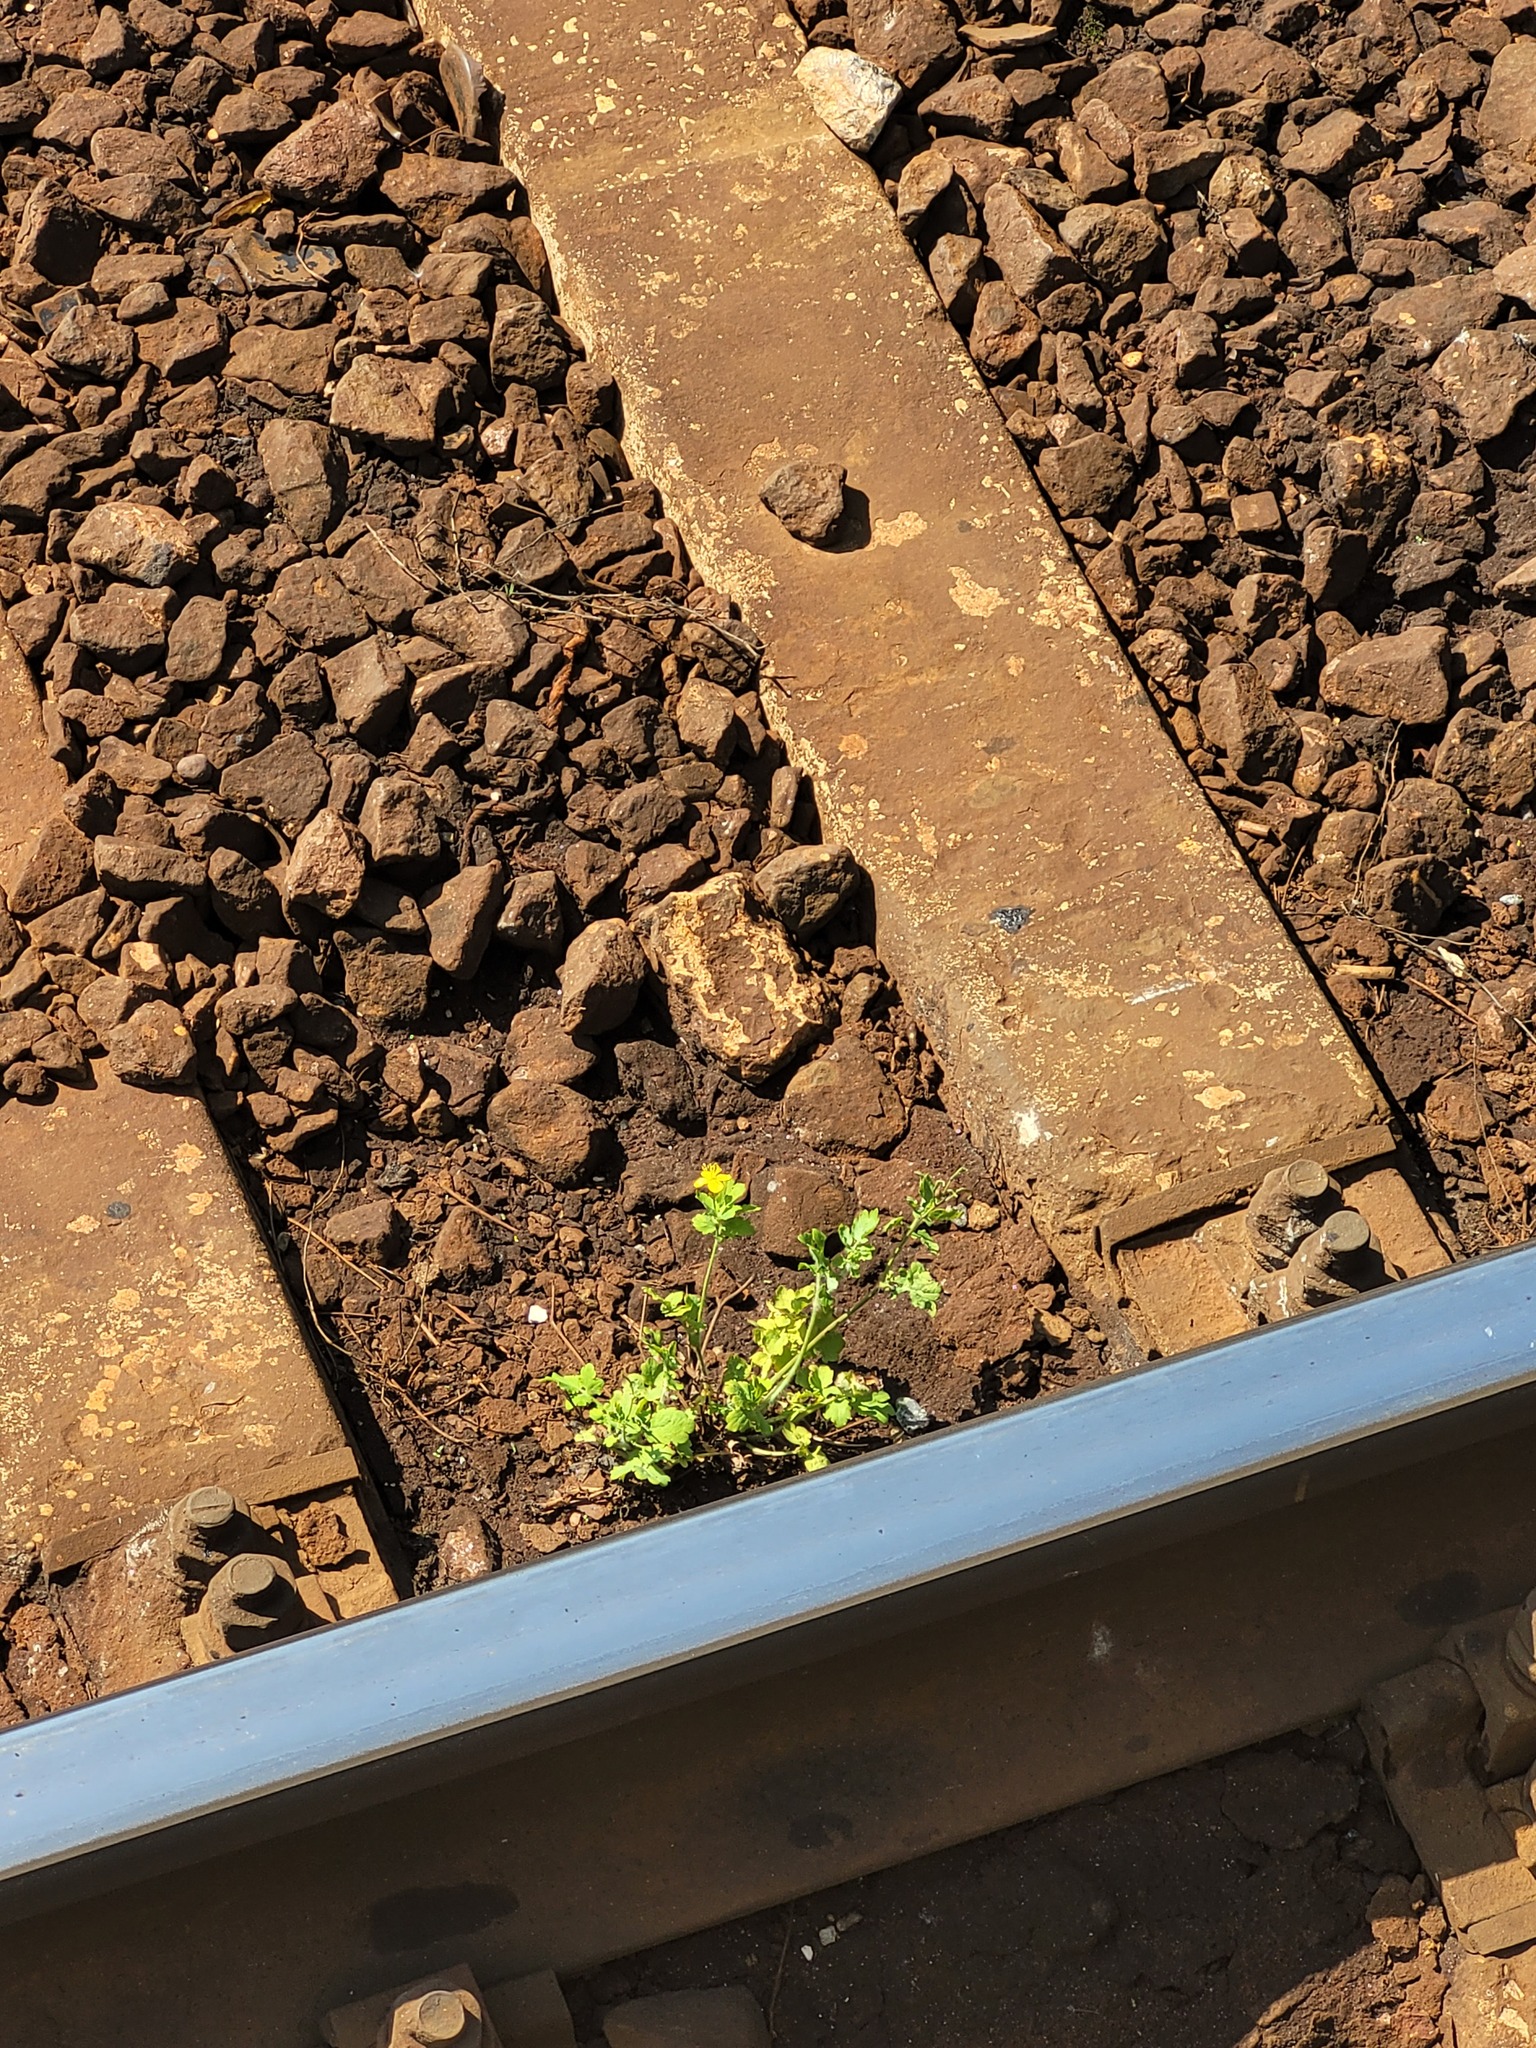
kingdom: Plantae
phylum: Tracheophyta
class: Magnoliopsida
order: Ranunculales
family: Papaveraceae
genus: Chelidonium
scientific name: Chelidonium majus
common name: Greater celandine
